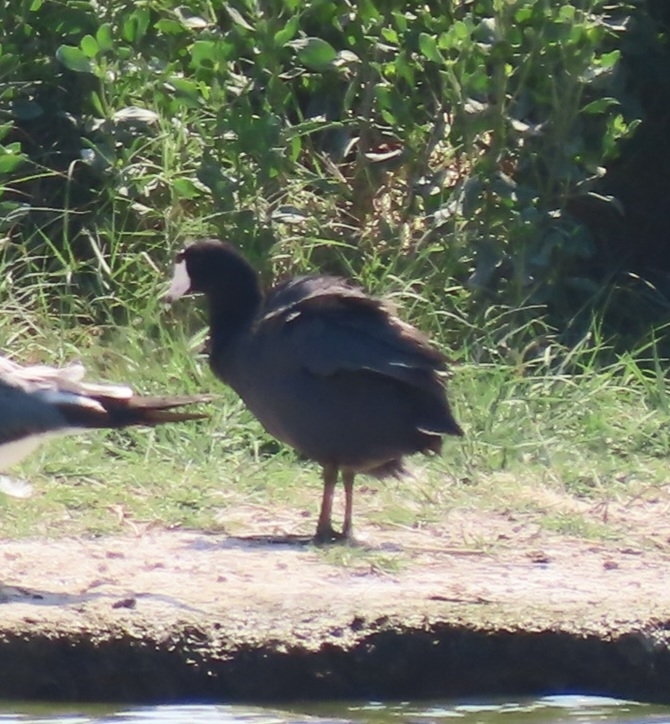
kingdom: Animalia
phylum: Chordata
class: Aves
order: Gruiformes
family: Rallidae
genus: Fulica
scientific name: Fulica americana
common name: American coot
